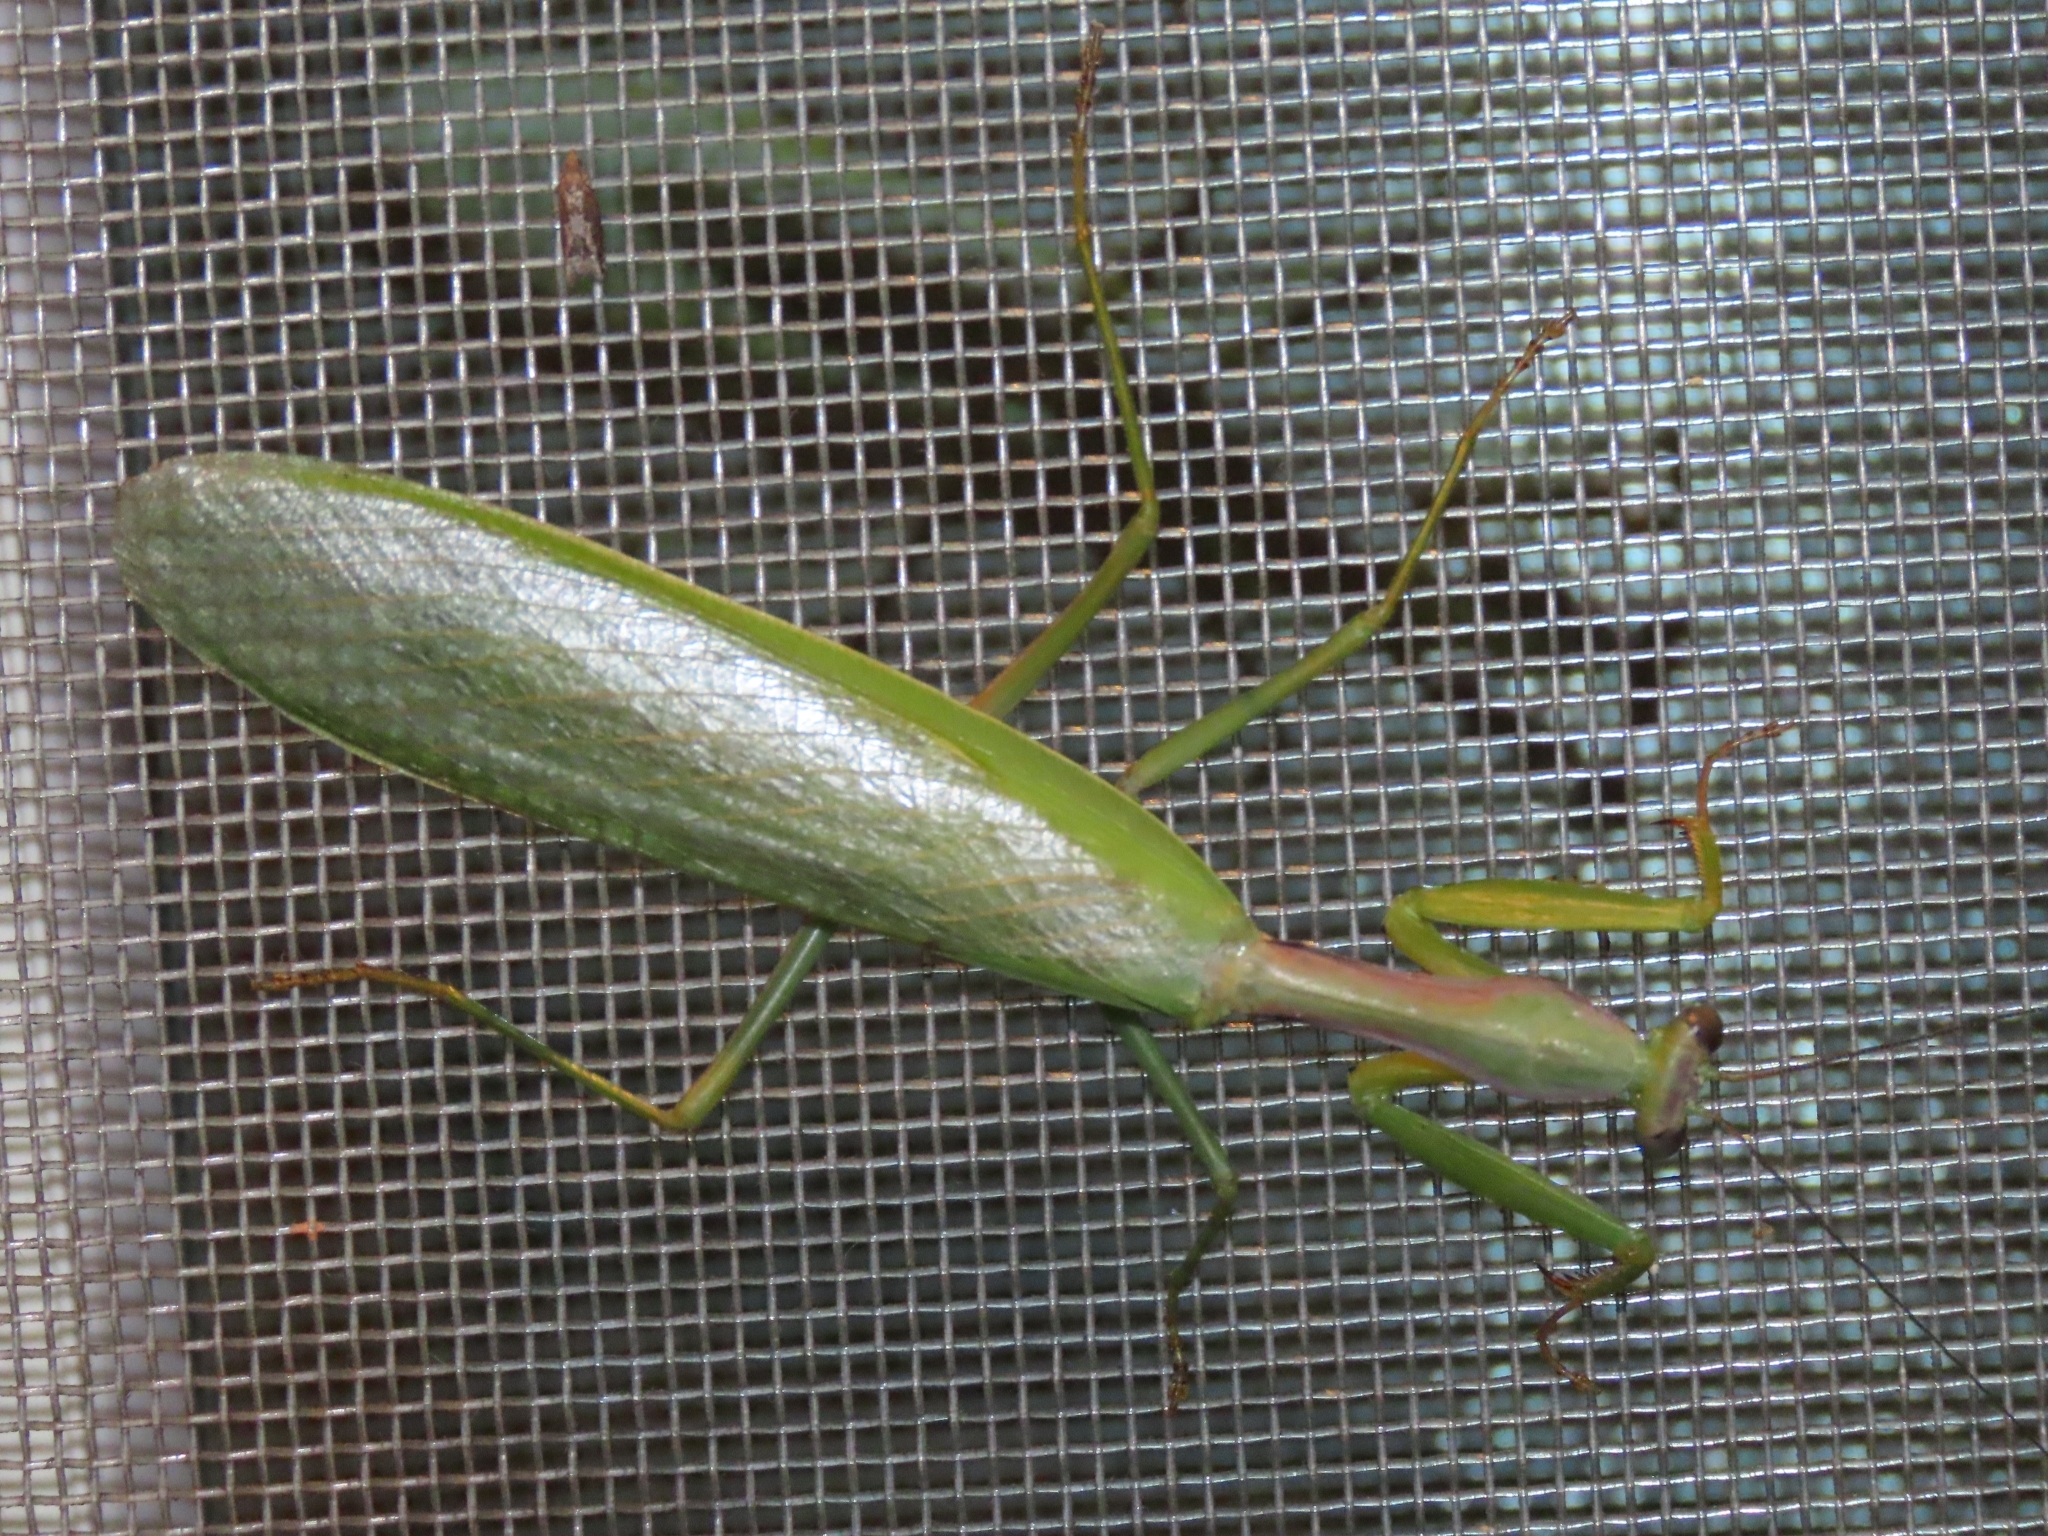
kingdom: Animalia
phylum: Arthropoda
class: Insecta
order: Mantodea
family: Mantidae
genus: Titanodula
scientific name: Titanodula formosana
